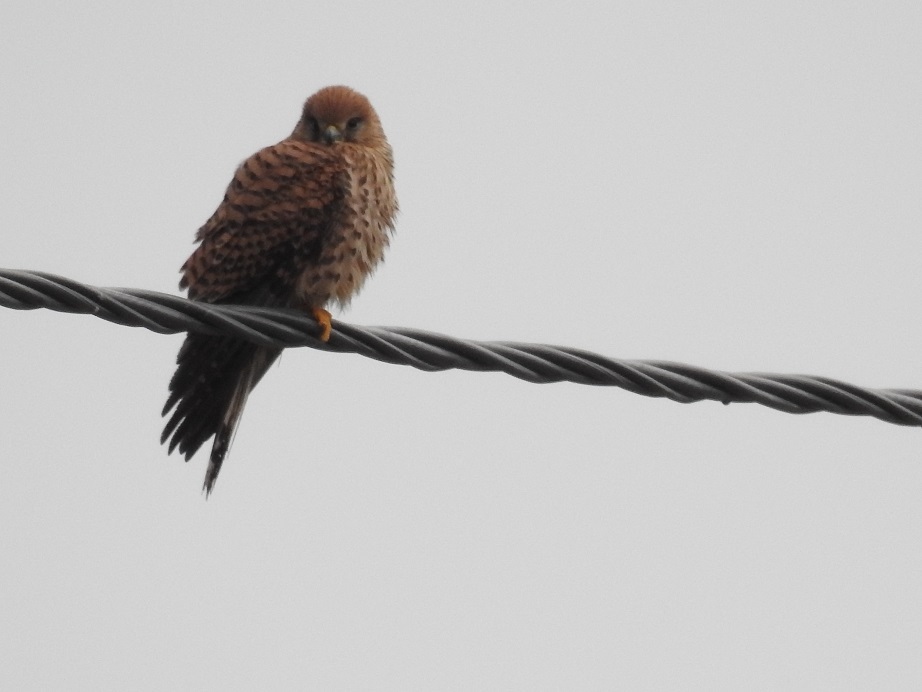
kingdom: Animalia
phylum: Chordata
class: Aves
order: Falconiformes
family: Falconidae
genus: Falco
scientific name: Falco tinnunculus
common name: Common kestrel
